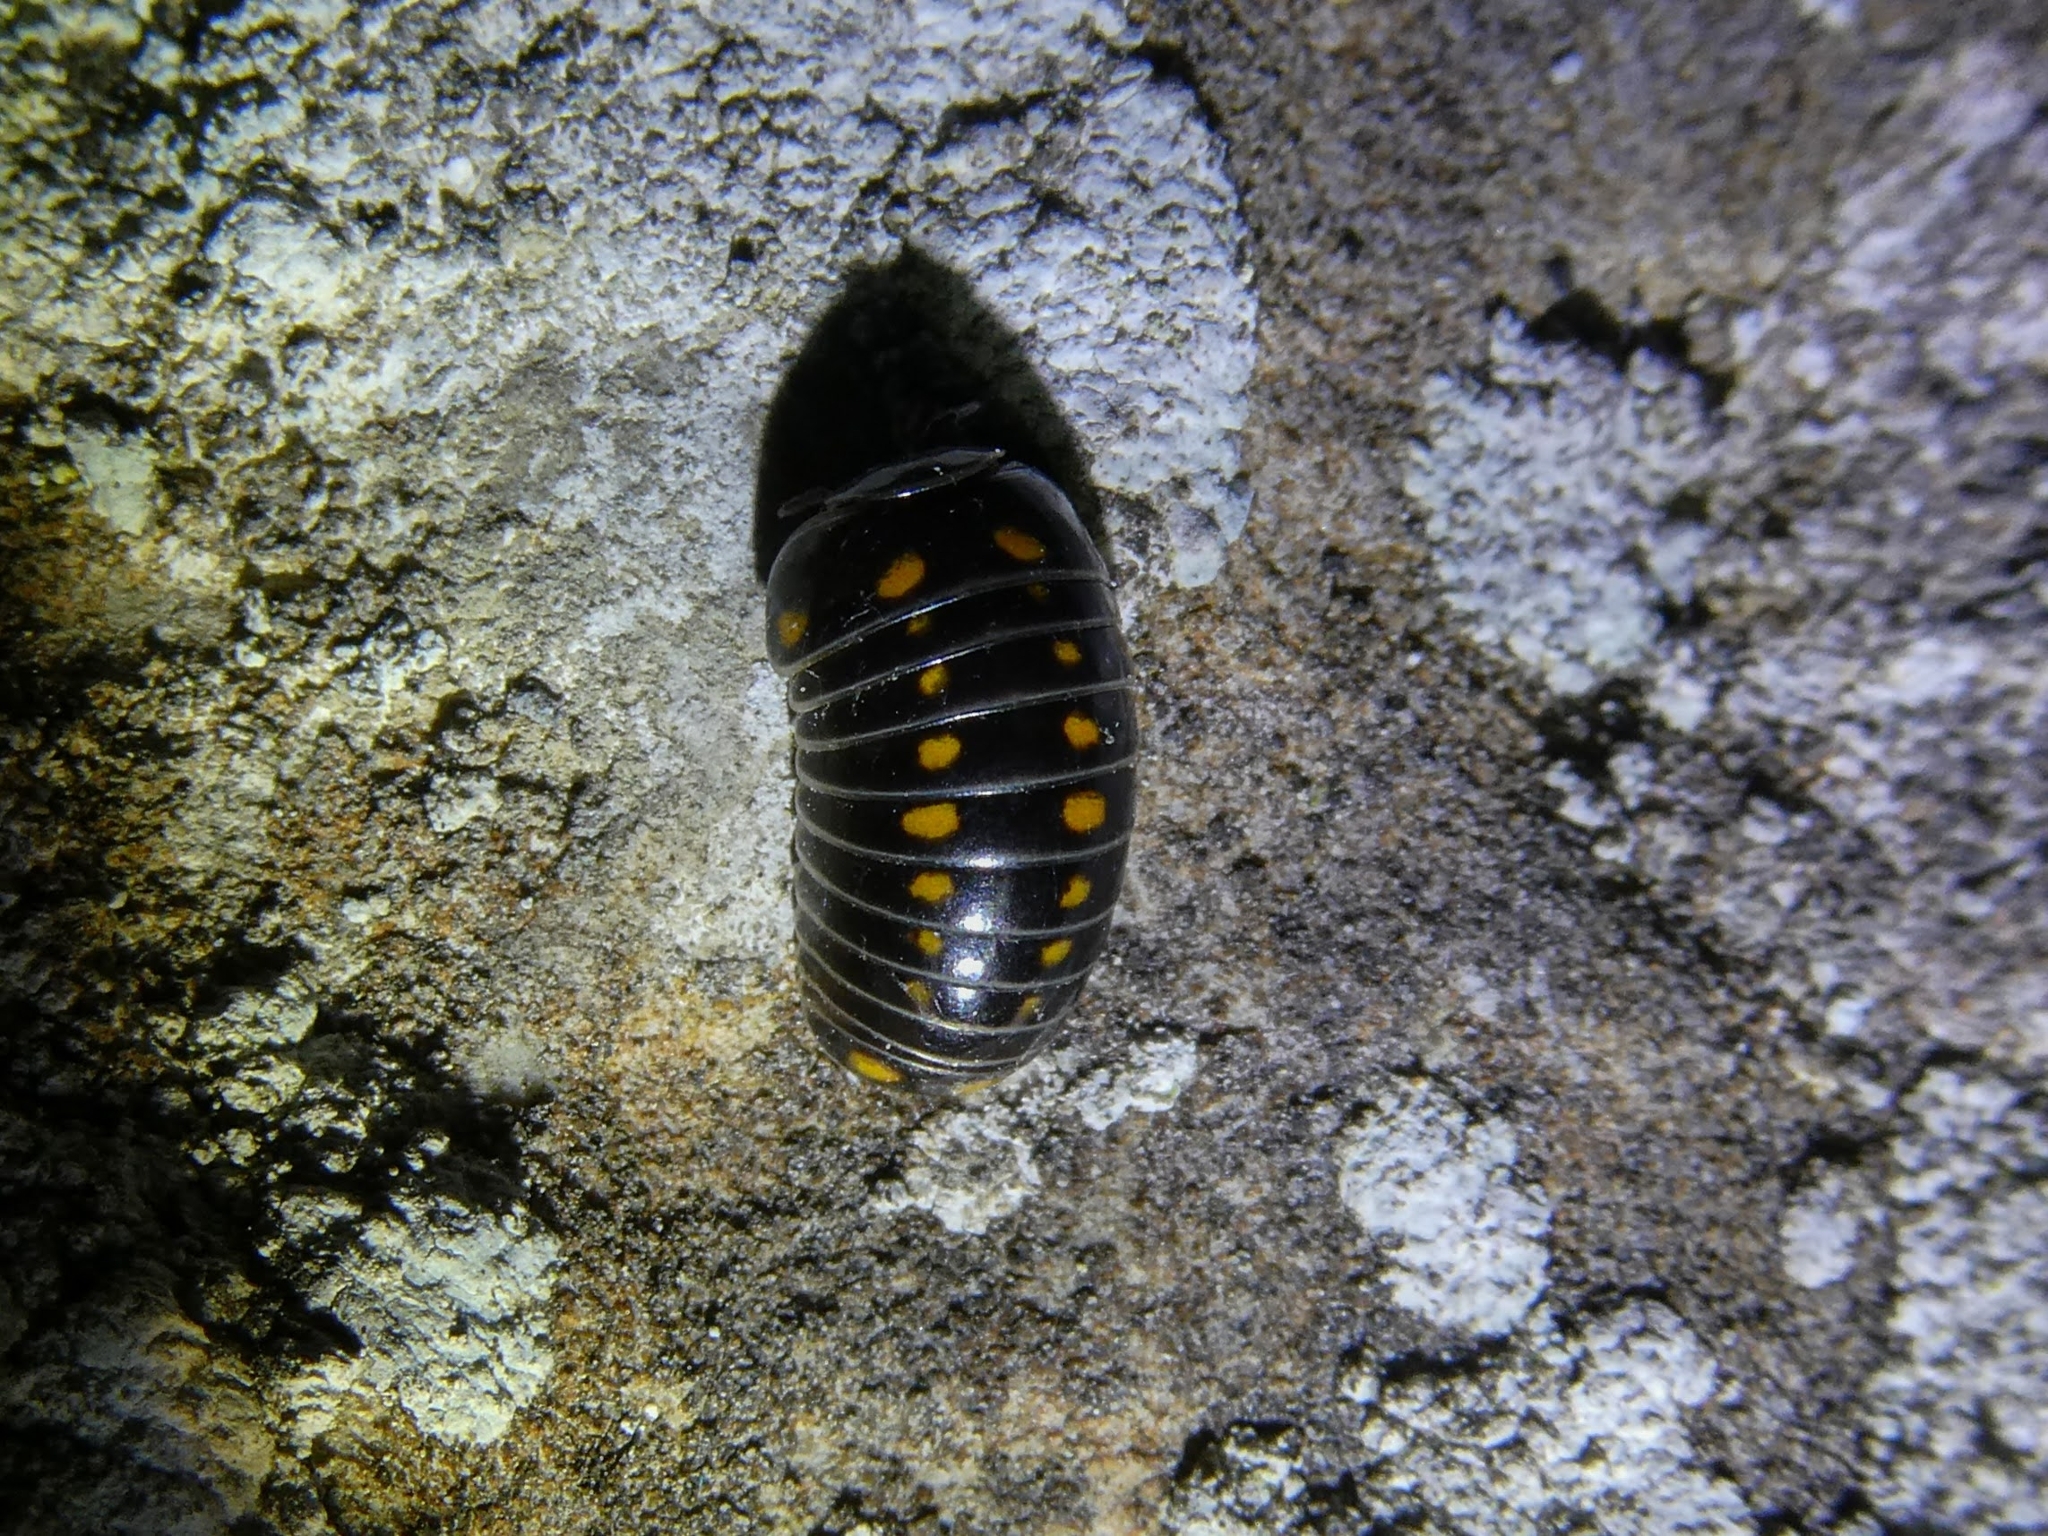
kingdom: Animalia
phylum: Arthropoda
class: Diplopoda
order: Glomerida
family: Glomeridae
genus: Glomeris
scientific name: Glomeris pustulata
